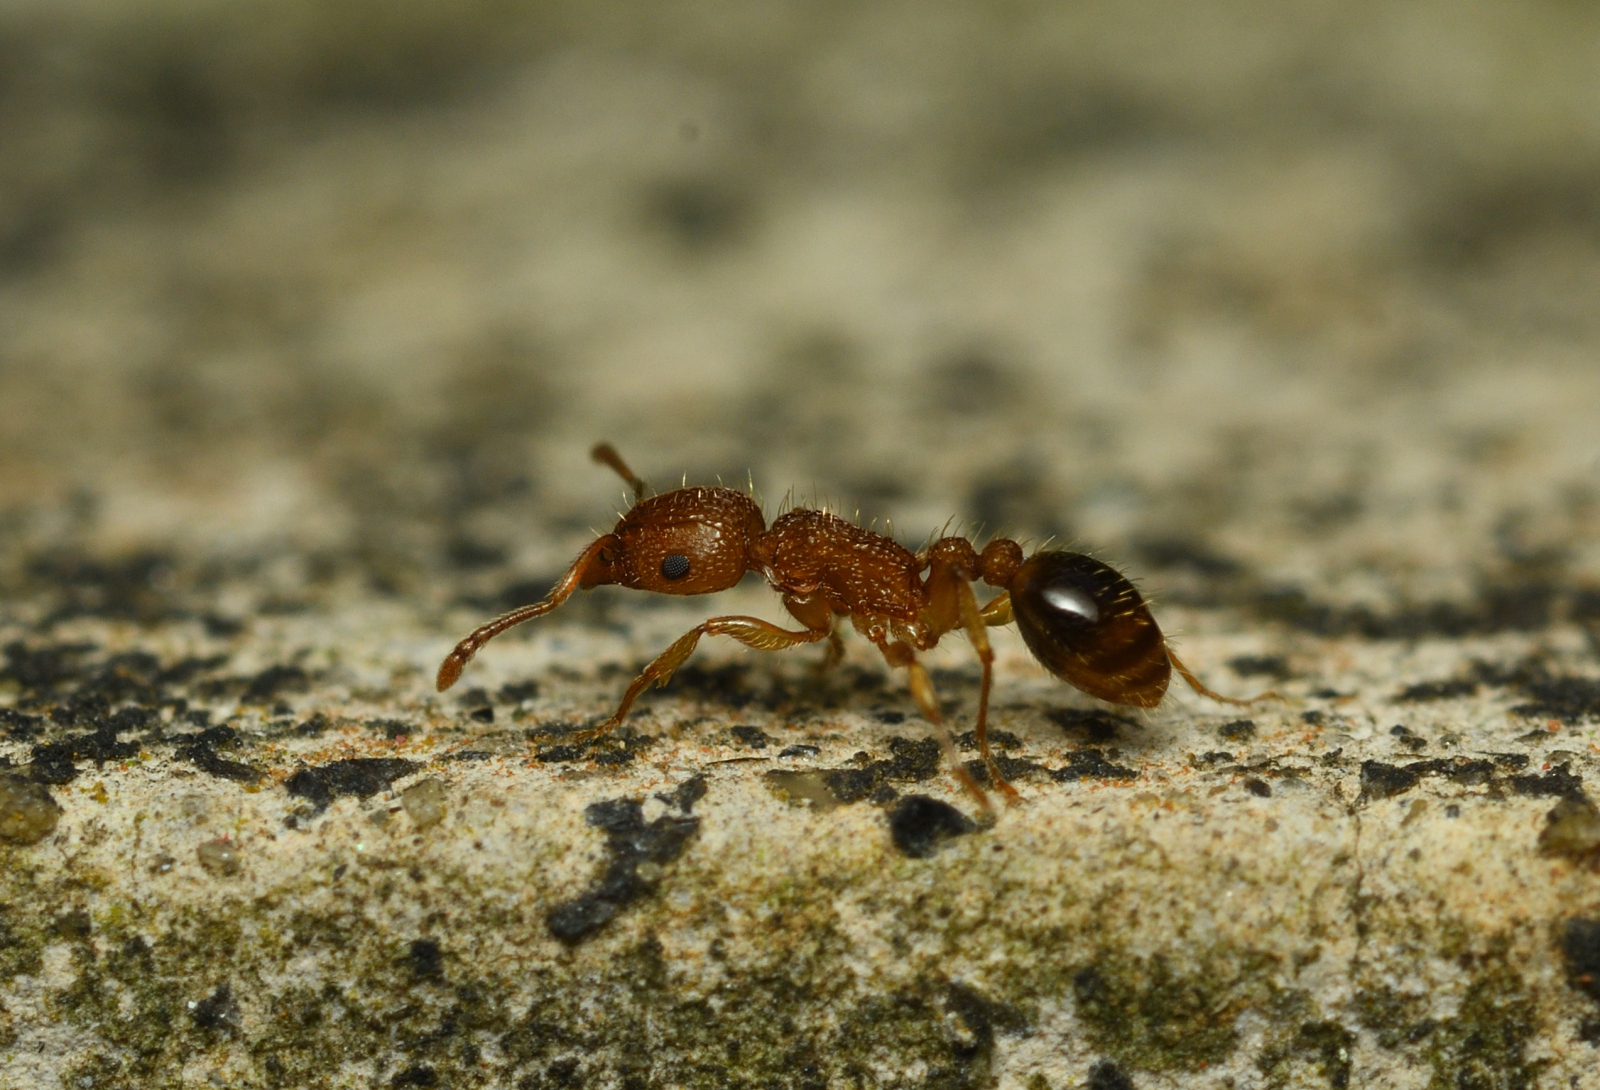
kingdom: Animalia
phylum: Arthropoda
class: Insecta
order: Hymenoptera
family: Formicidae
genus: Tetramorium
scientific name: Tetramorium bicarinatum
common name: Guinea ant
